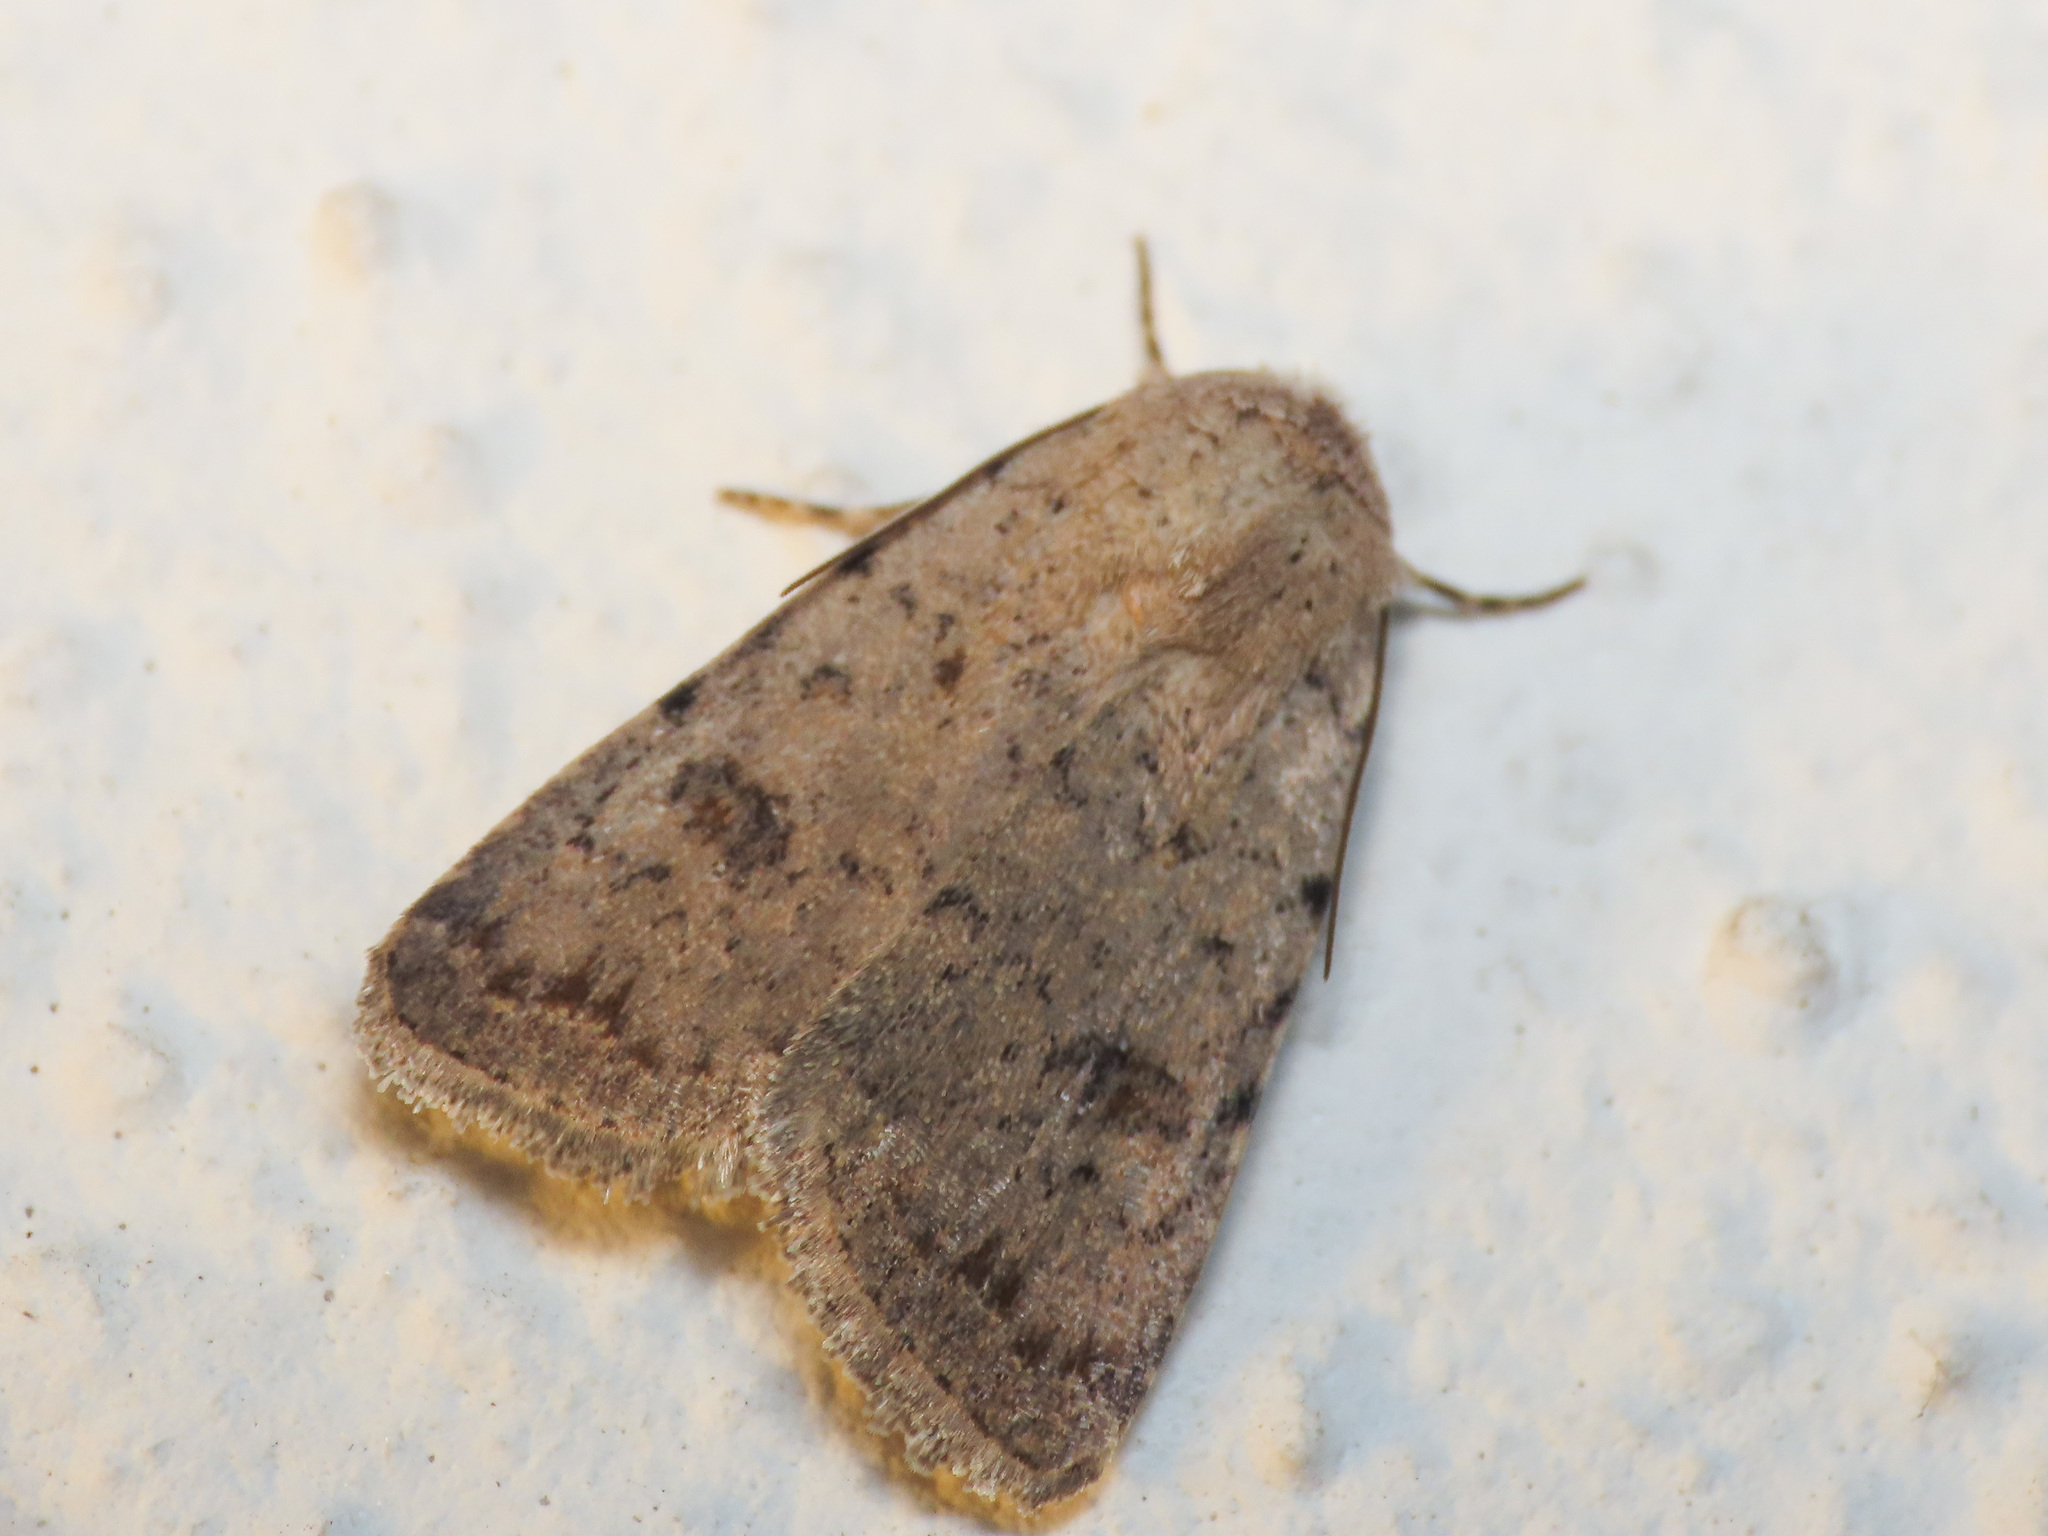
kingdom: Animalia
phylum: Arthropoda
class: Insecta
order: Lepidoptera
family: Noctuidae
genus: Caradrina
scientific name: Caradrina clavipalpis
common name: Pale mottled willow
